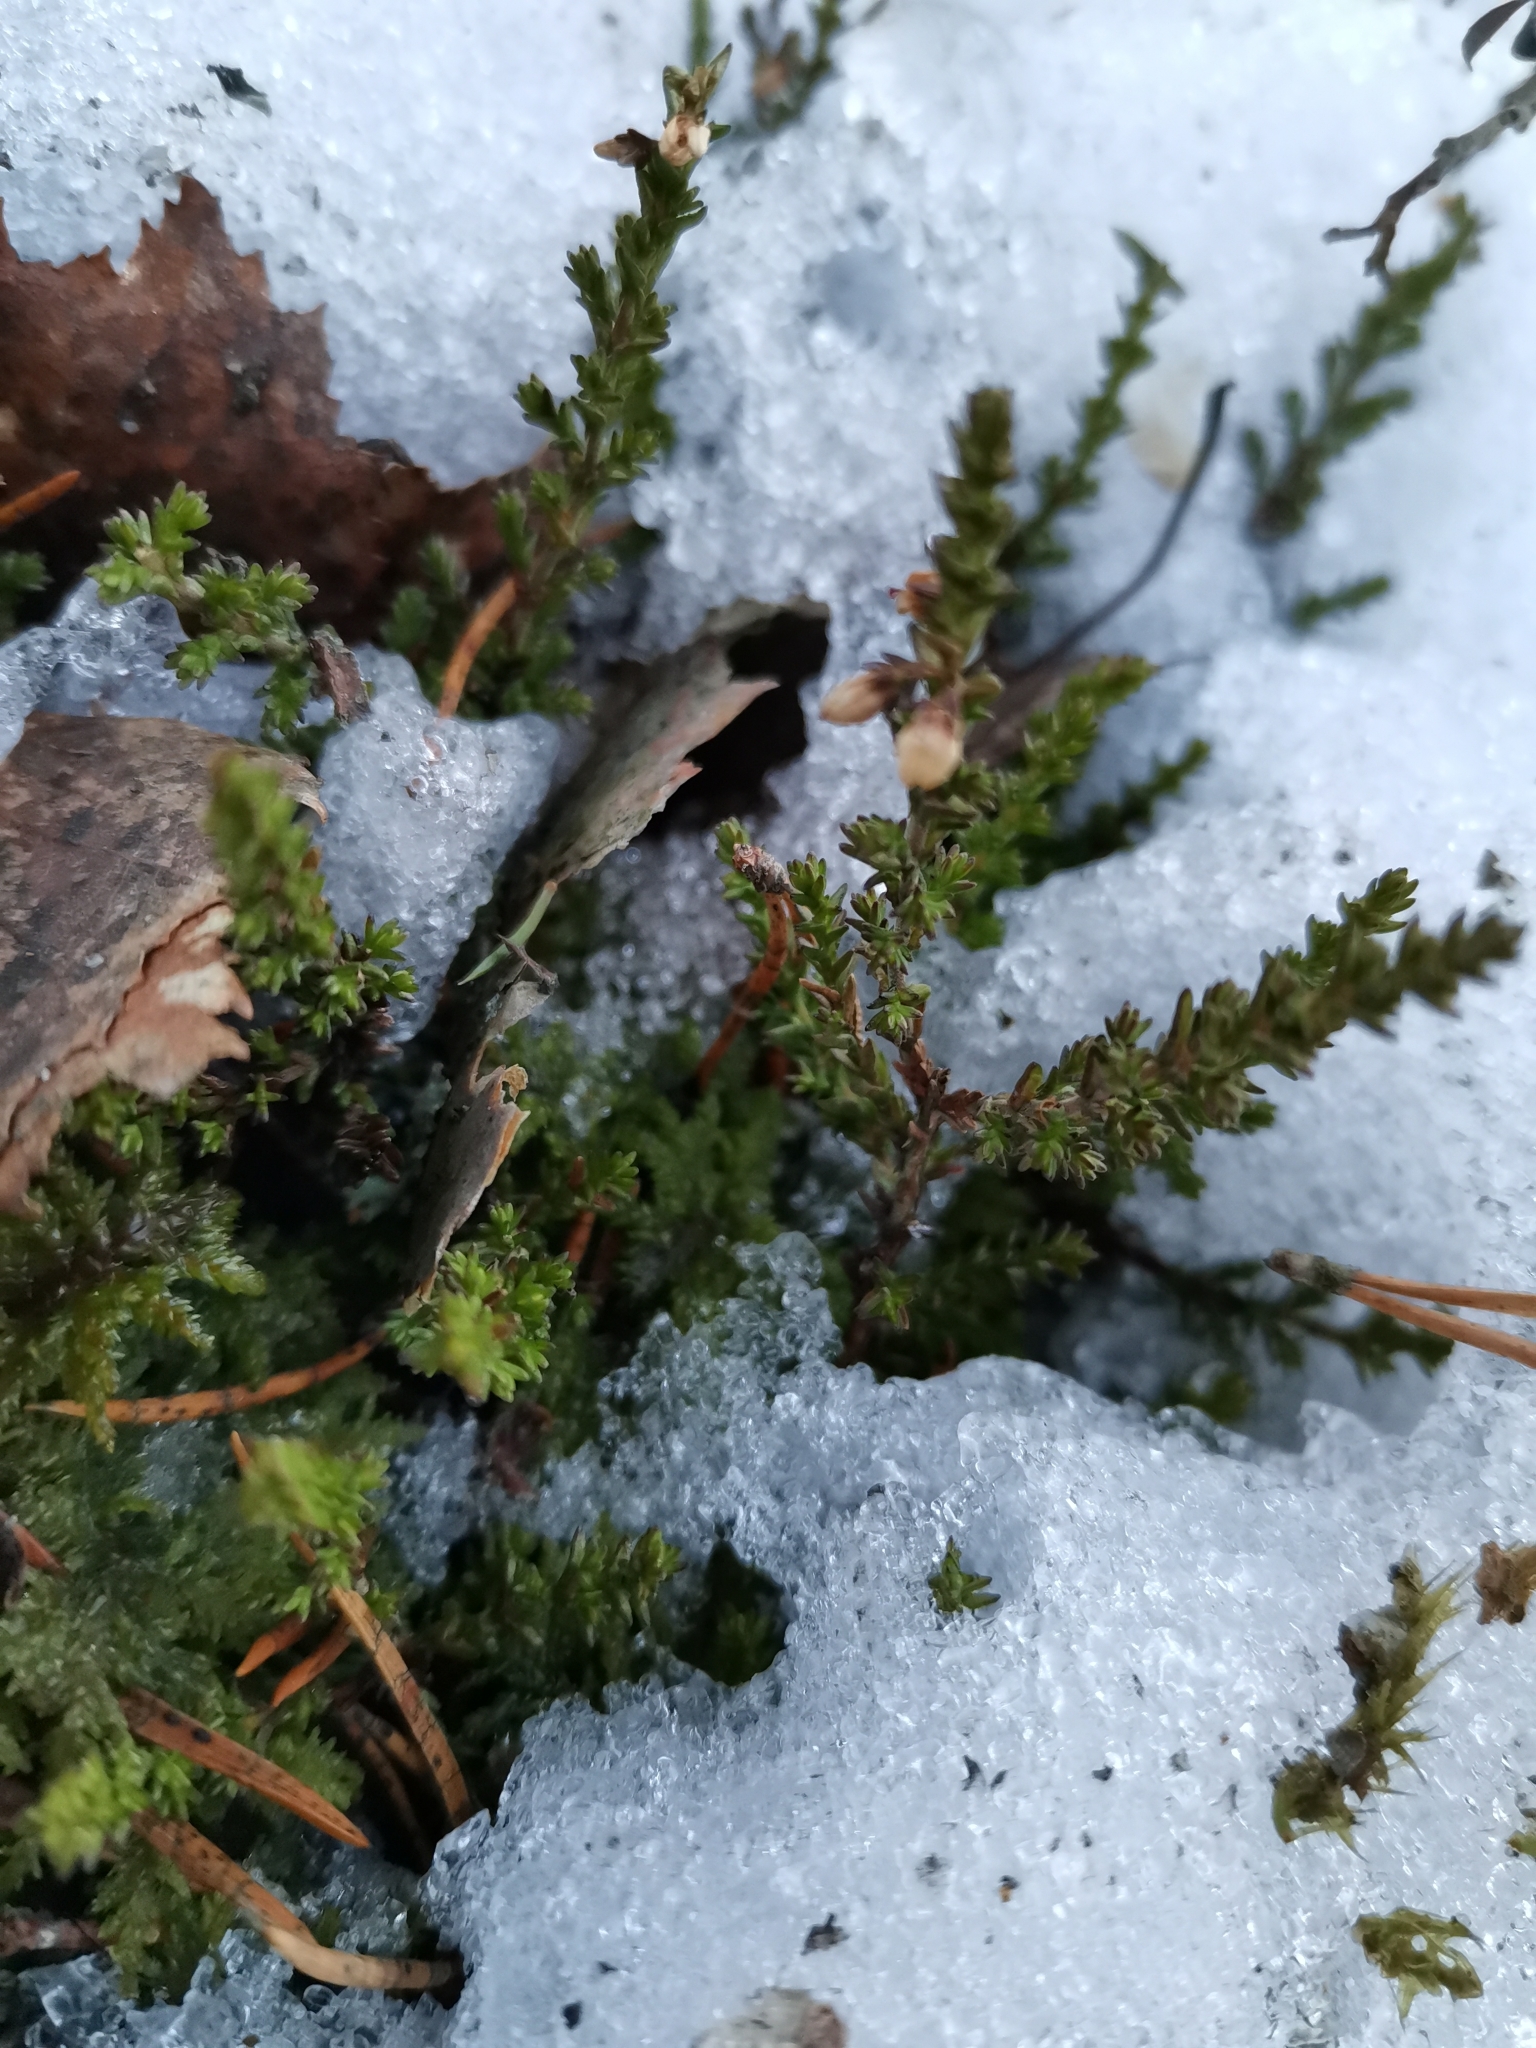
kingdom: Plantae
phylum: Tracheophyta
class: Magnoliopsida
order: Ericales
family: Ericaceae
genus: Calluna
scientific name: Calluna vulgaris
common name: Heather
